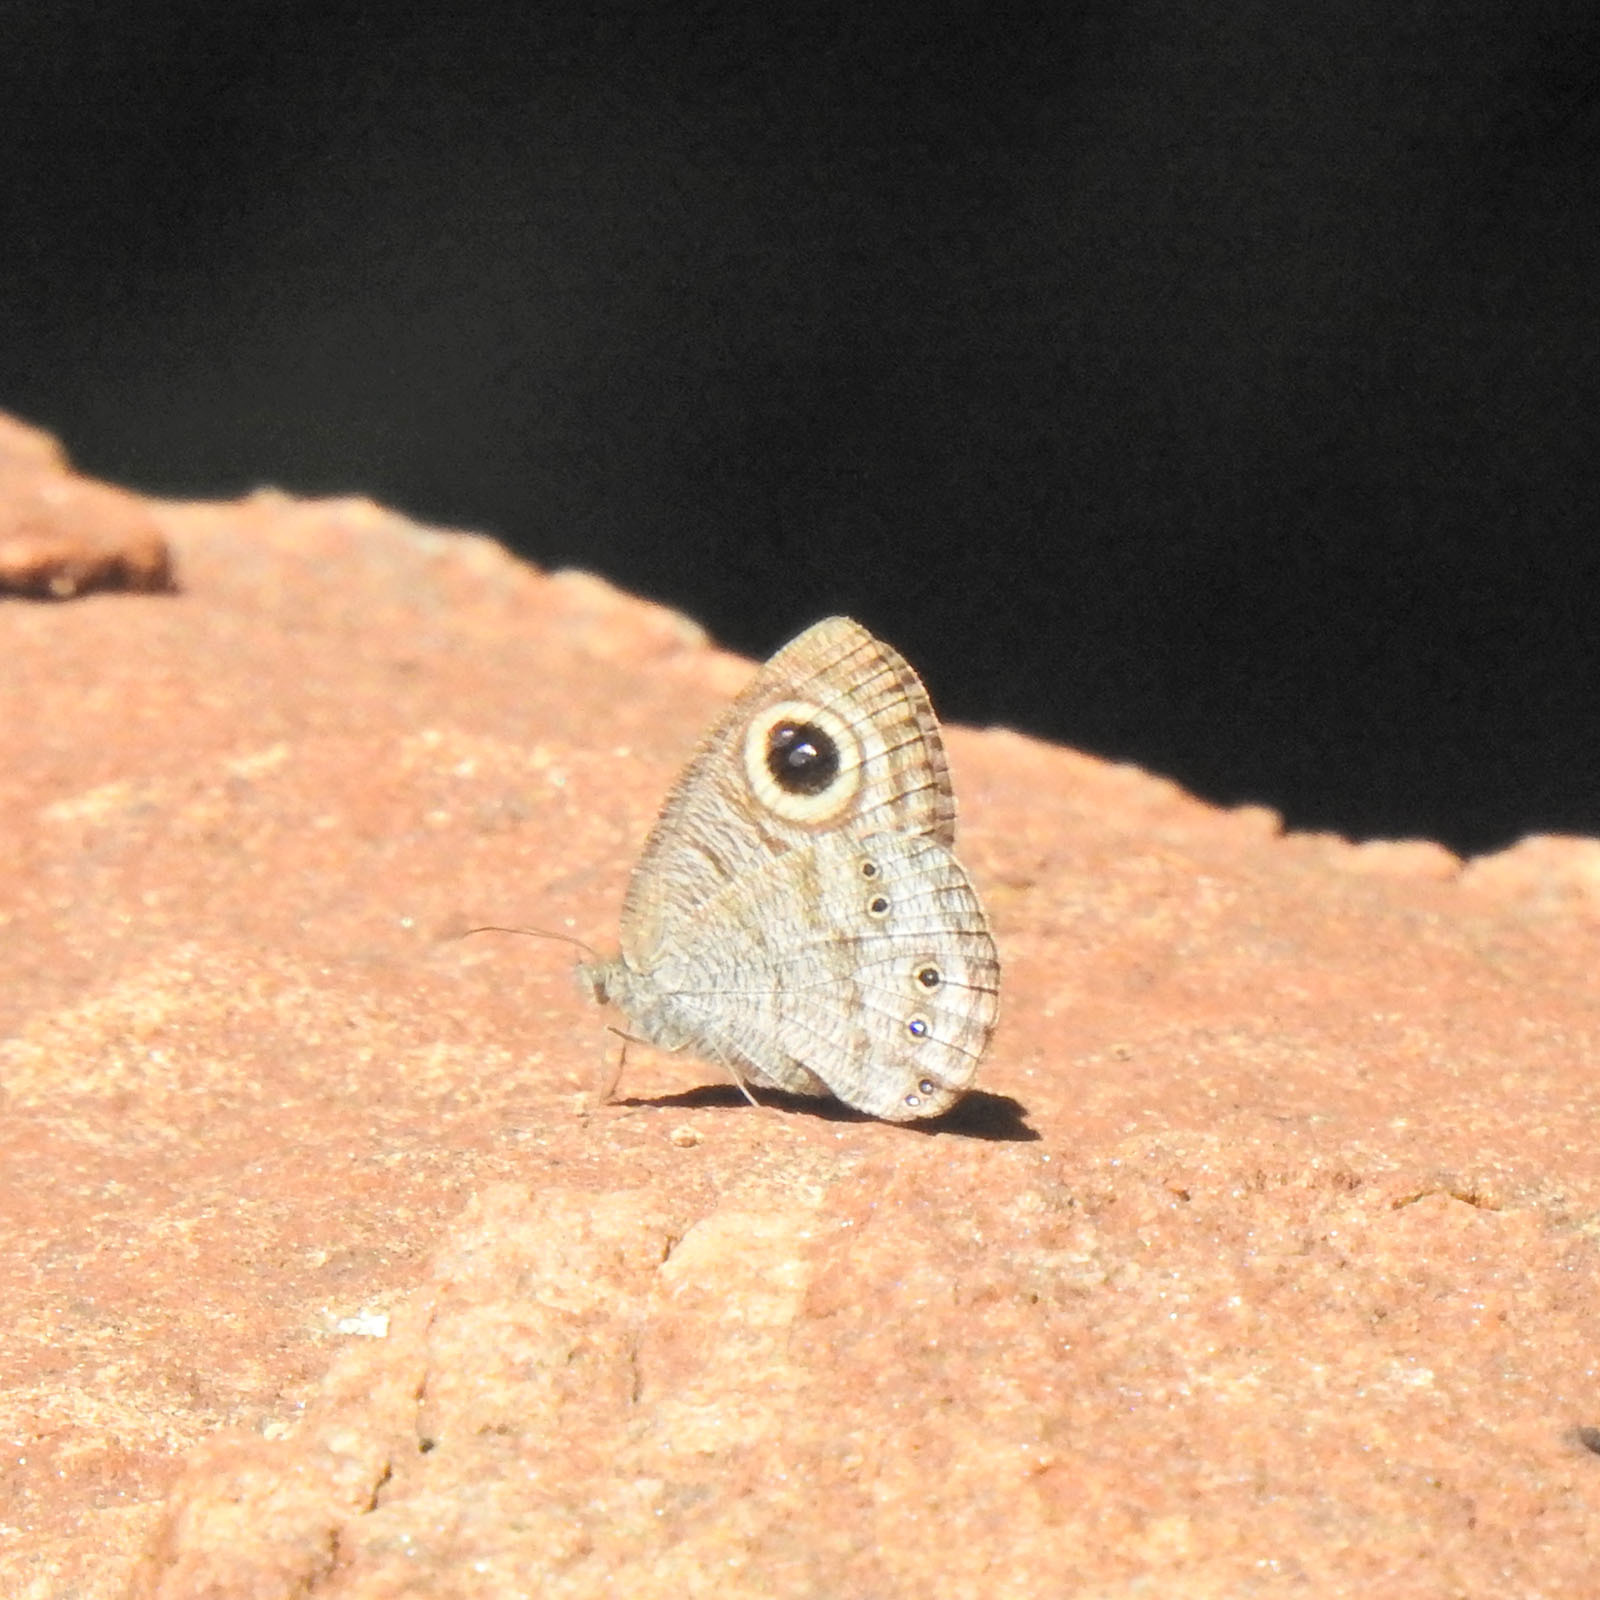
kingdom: Animalia
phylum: Arthropoda
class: Insecta
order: Lepidoptera
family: Nymphalidae
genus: Ypthima
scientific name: Ypthima baldus
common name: Common five-ring
